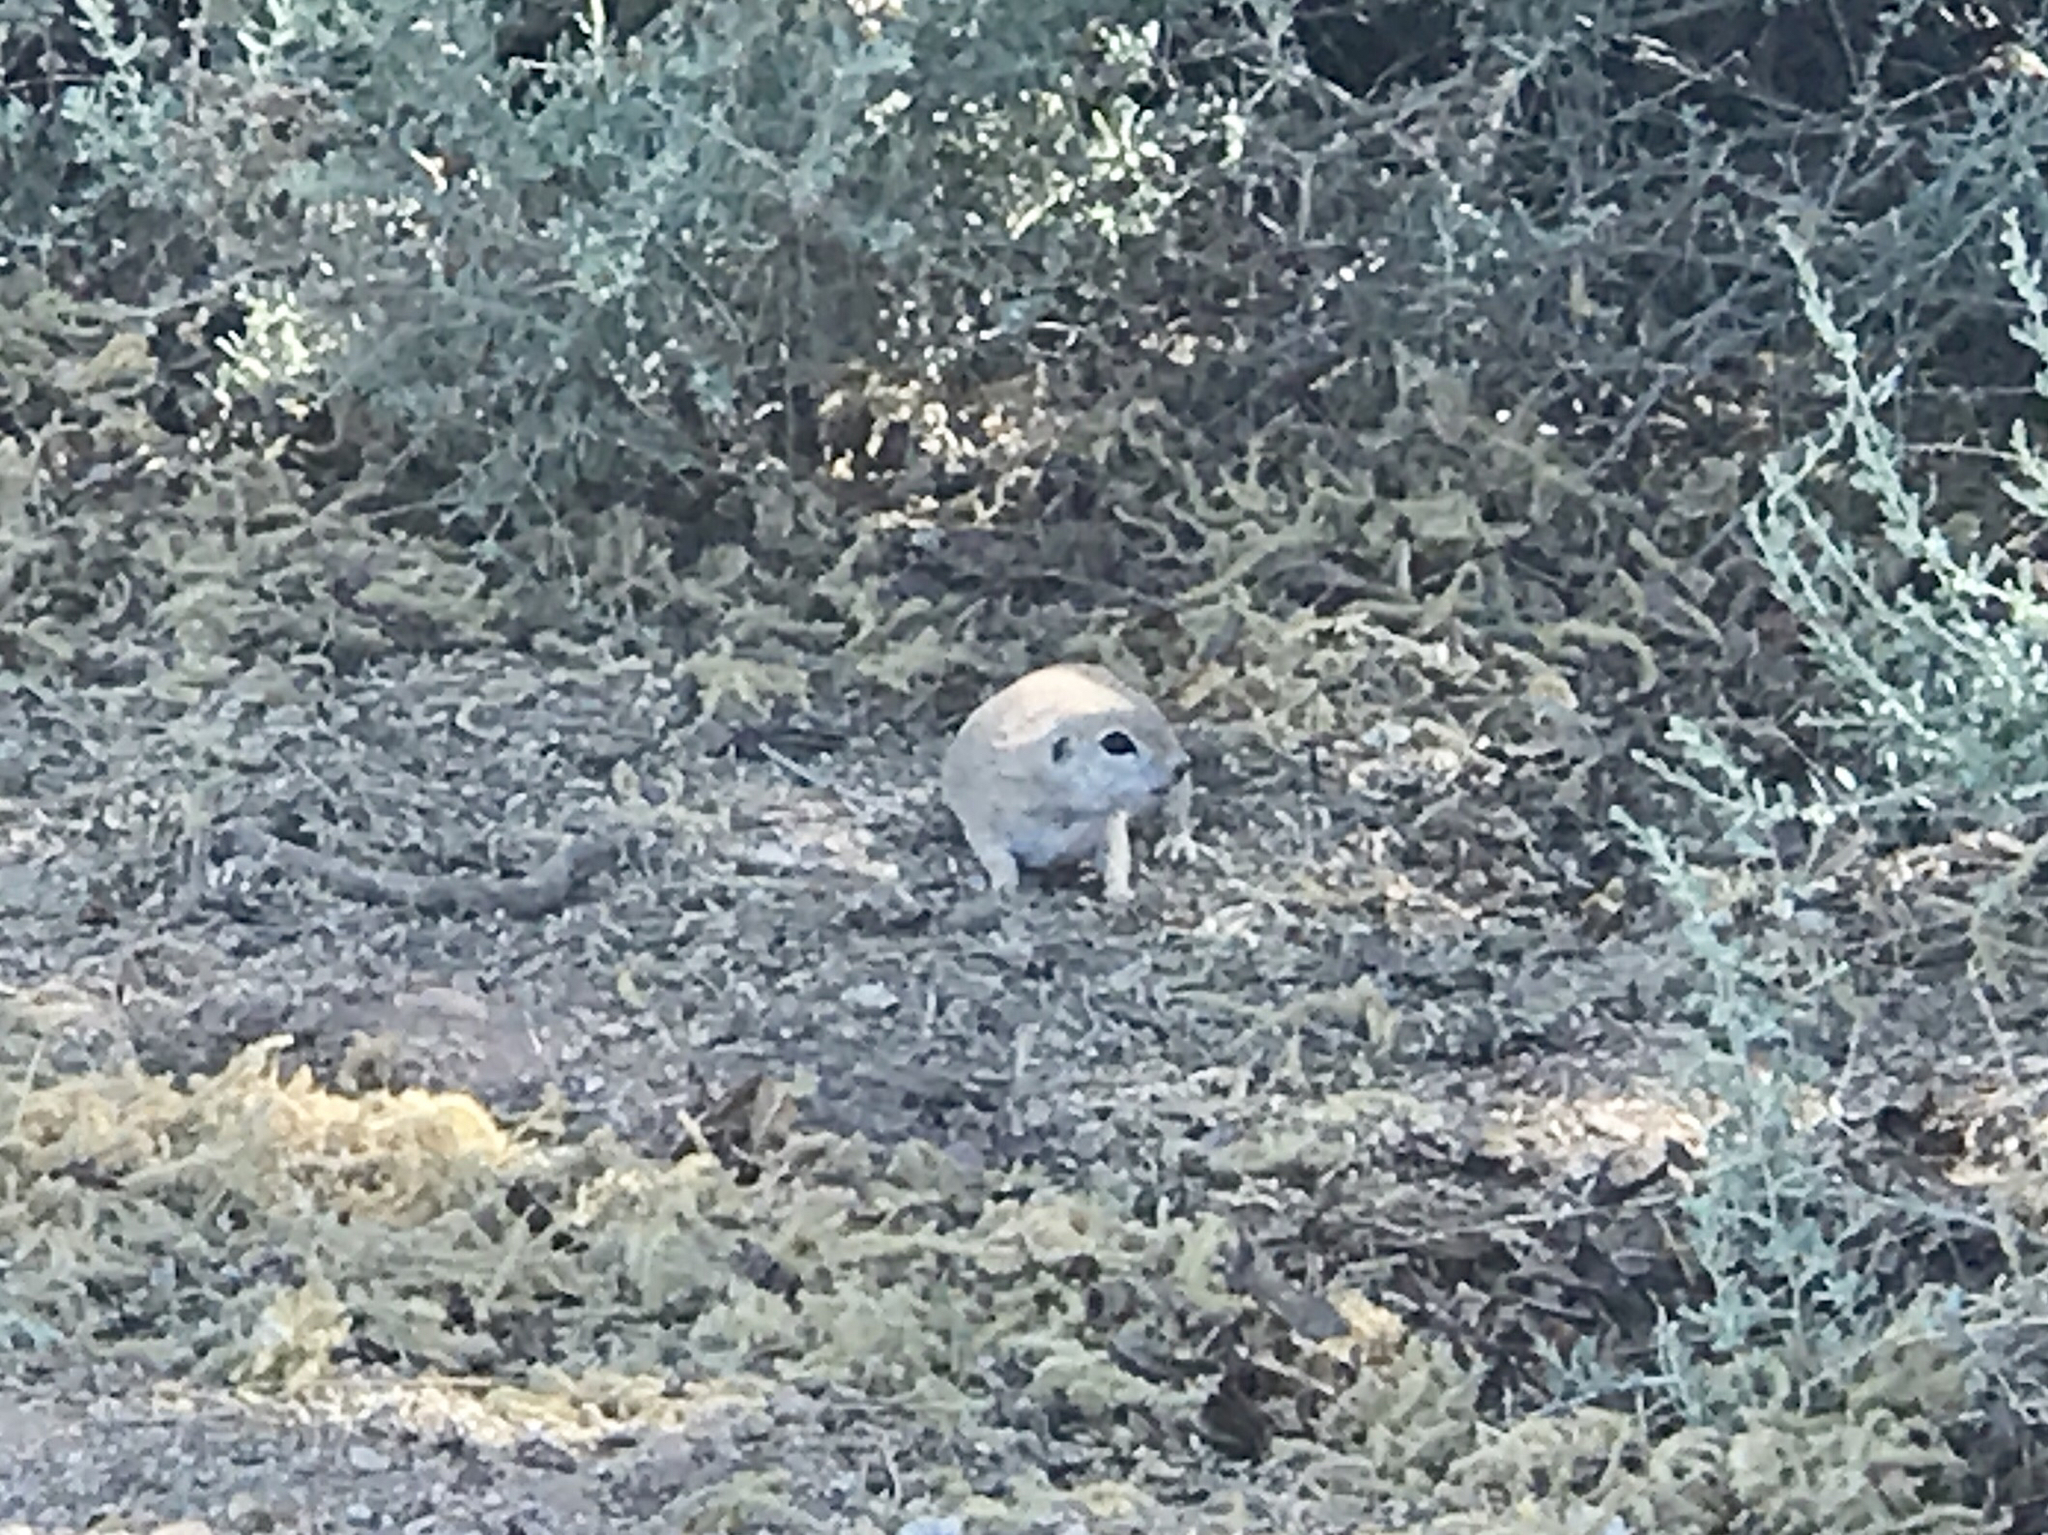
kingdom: Animalia
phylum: Chordata
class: Mammalia
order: Rodentia
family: Sciuridae
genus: Xerospermophilus
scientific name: Xerospermophilus tereticaudus
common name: Round-tailed ground squirrel
